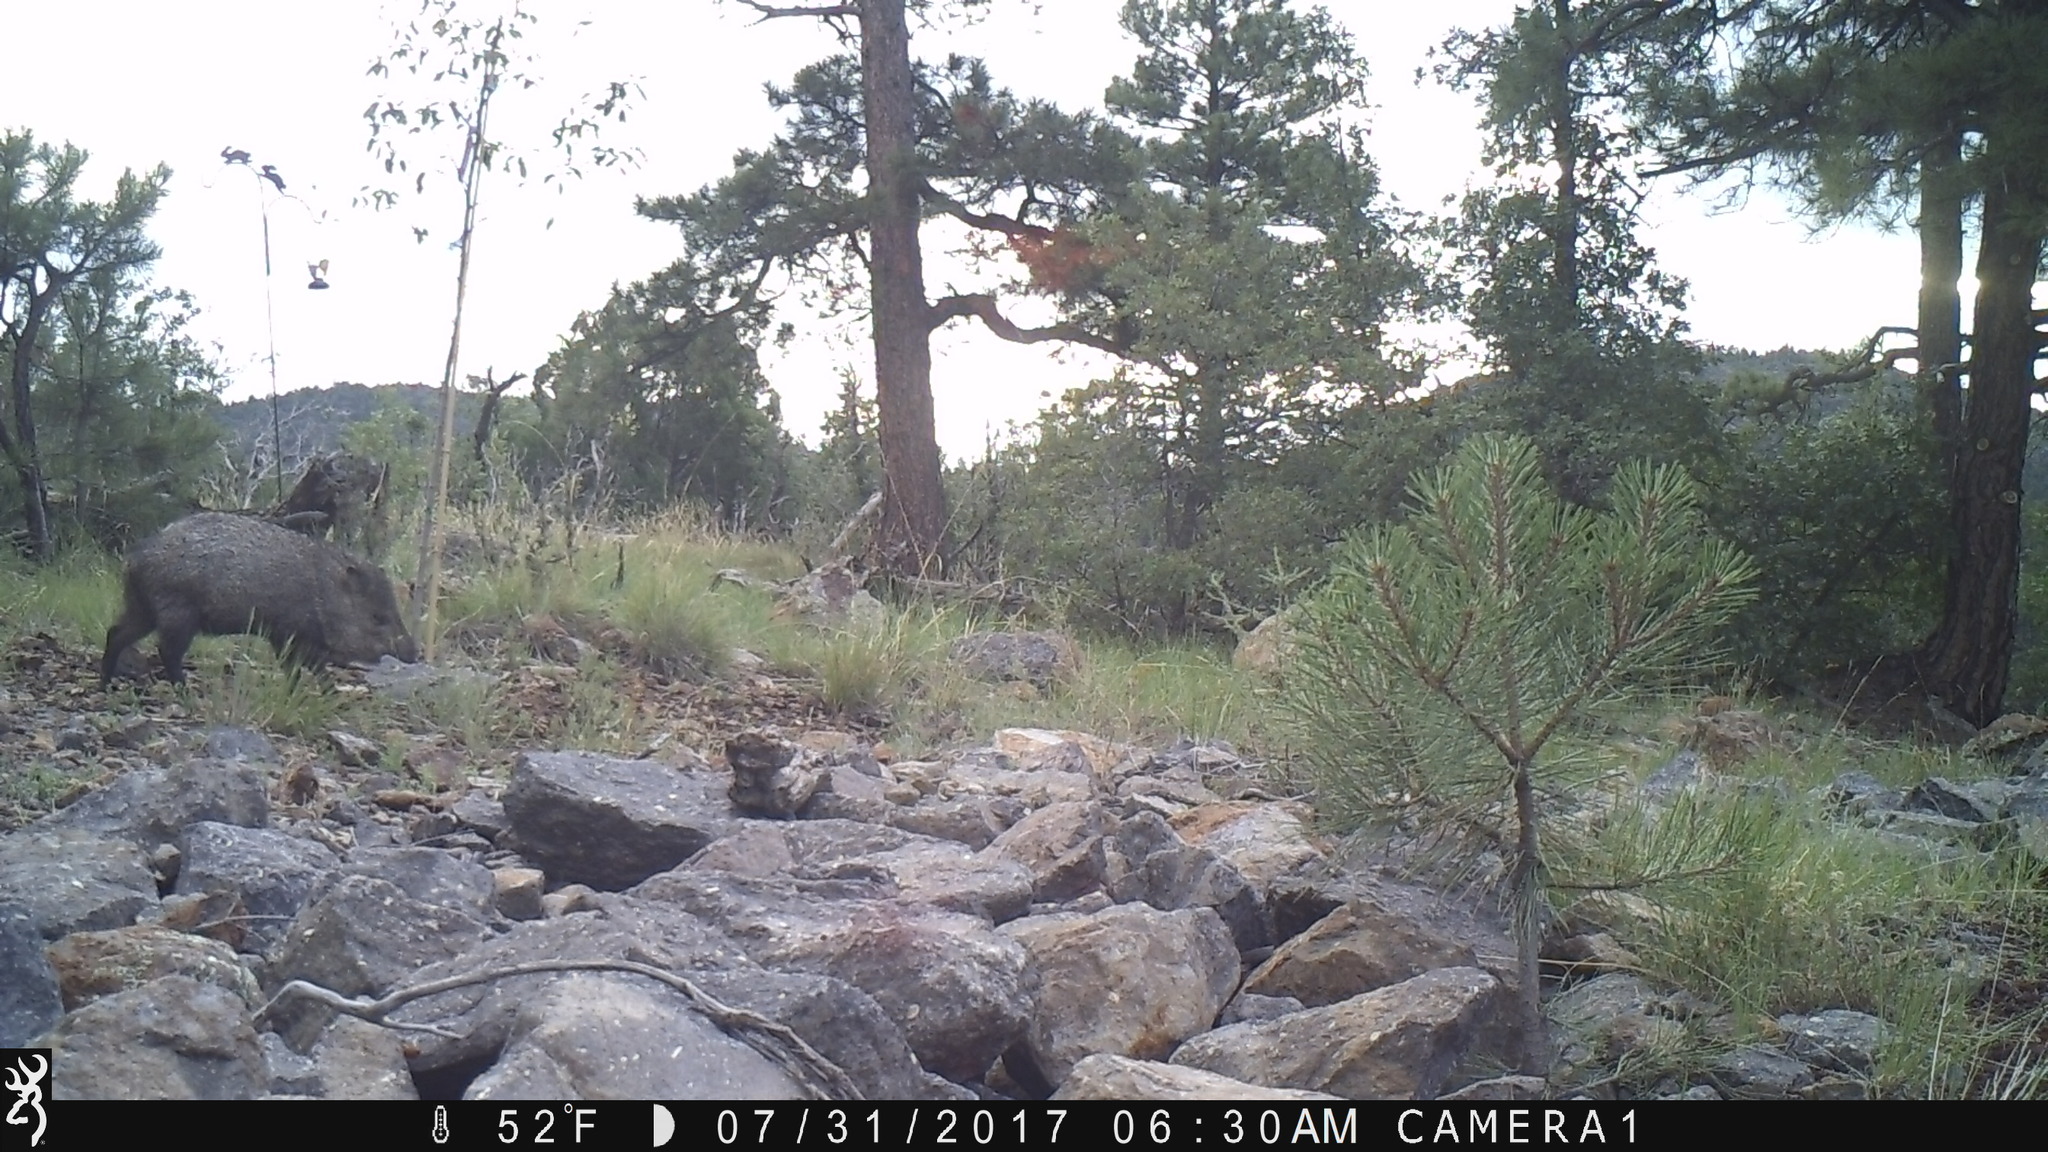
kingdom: Animalia
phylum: Chordata
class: Mammalia
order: Artiodactyla
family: Tayassuidae
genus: Pecari
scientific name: Pecari tajacu
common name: Collared peccary
